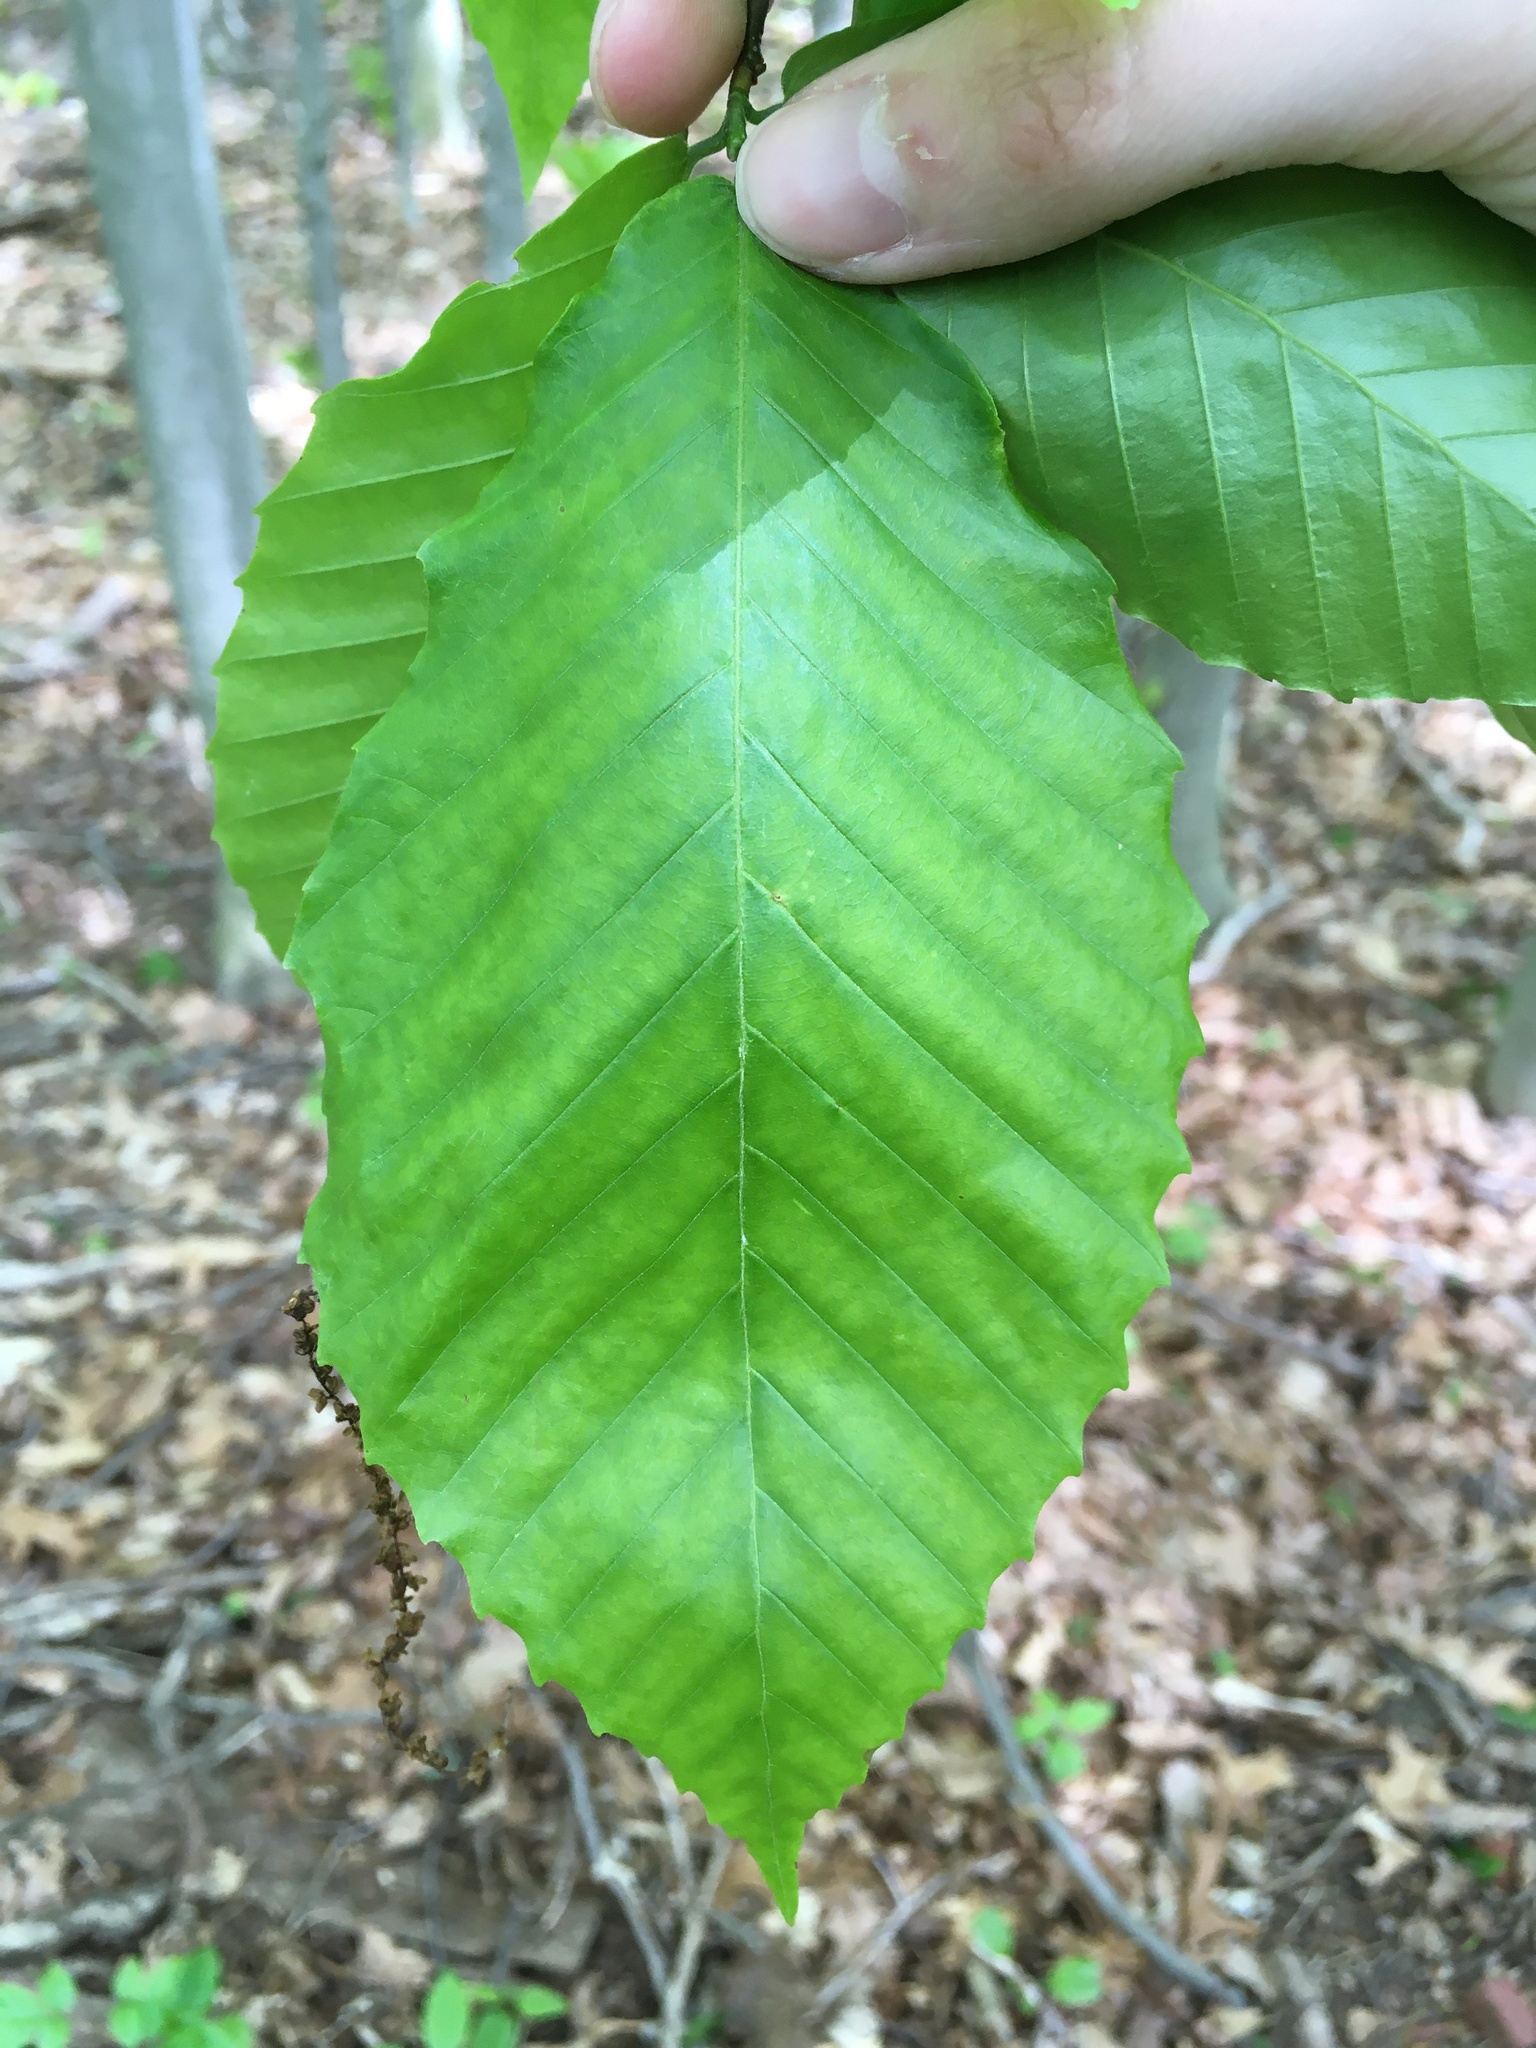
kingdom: Plantae
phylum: Tracheophyta
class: Magnoliopsida
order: Fagales
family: Fagaceae
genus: Fagus
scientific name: Fagus grandifolia
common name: American beech
